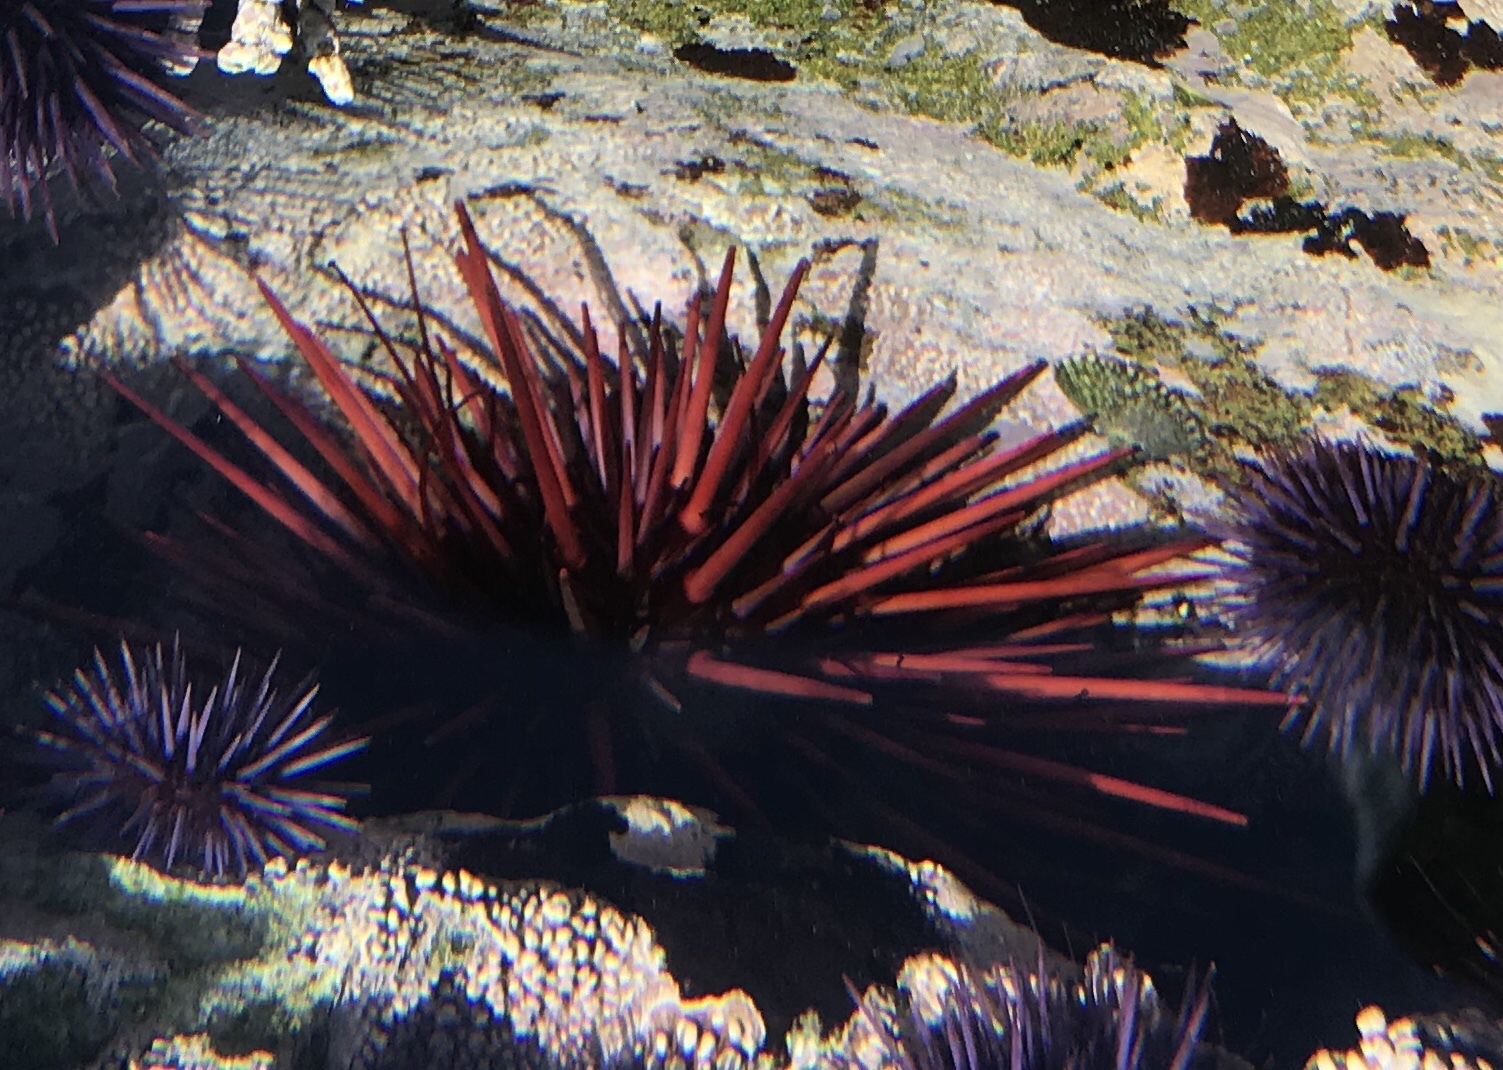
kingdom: Animalia
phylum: Echinodermata
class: Echinoidea
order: Camarodonta
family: Strongylocentrotidae
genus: Mesocentrotus
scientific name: Mesocentrotus franciscanus
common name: Red sea urchin
